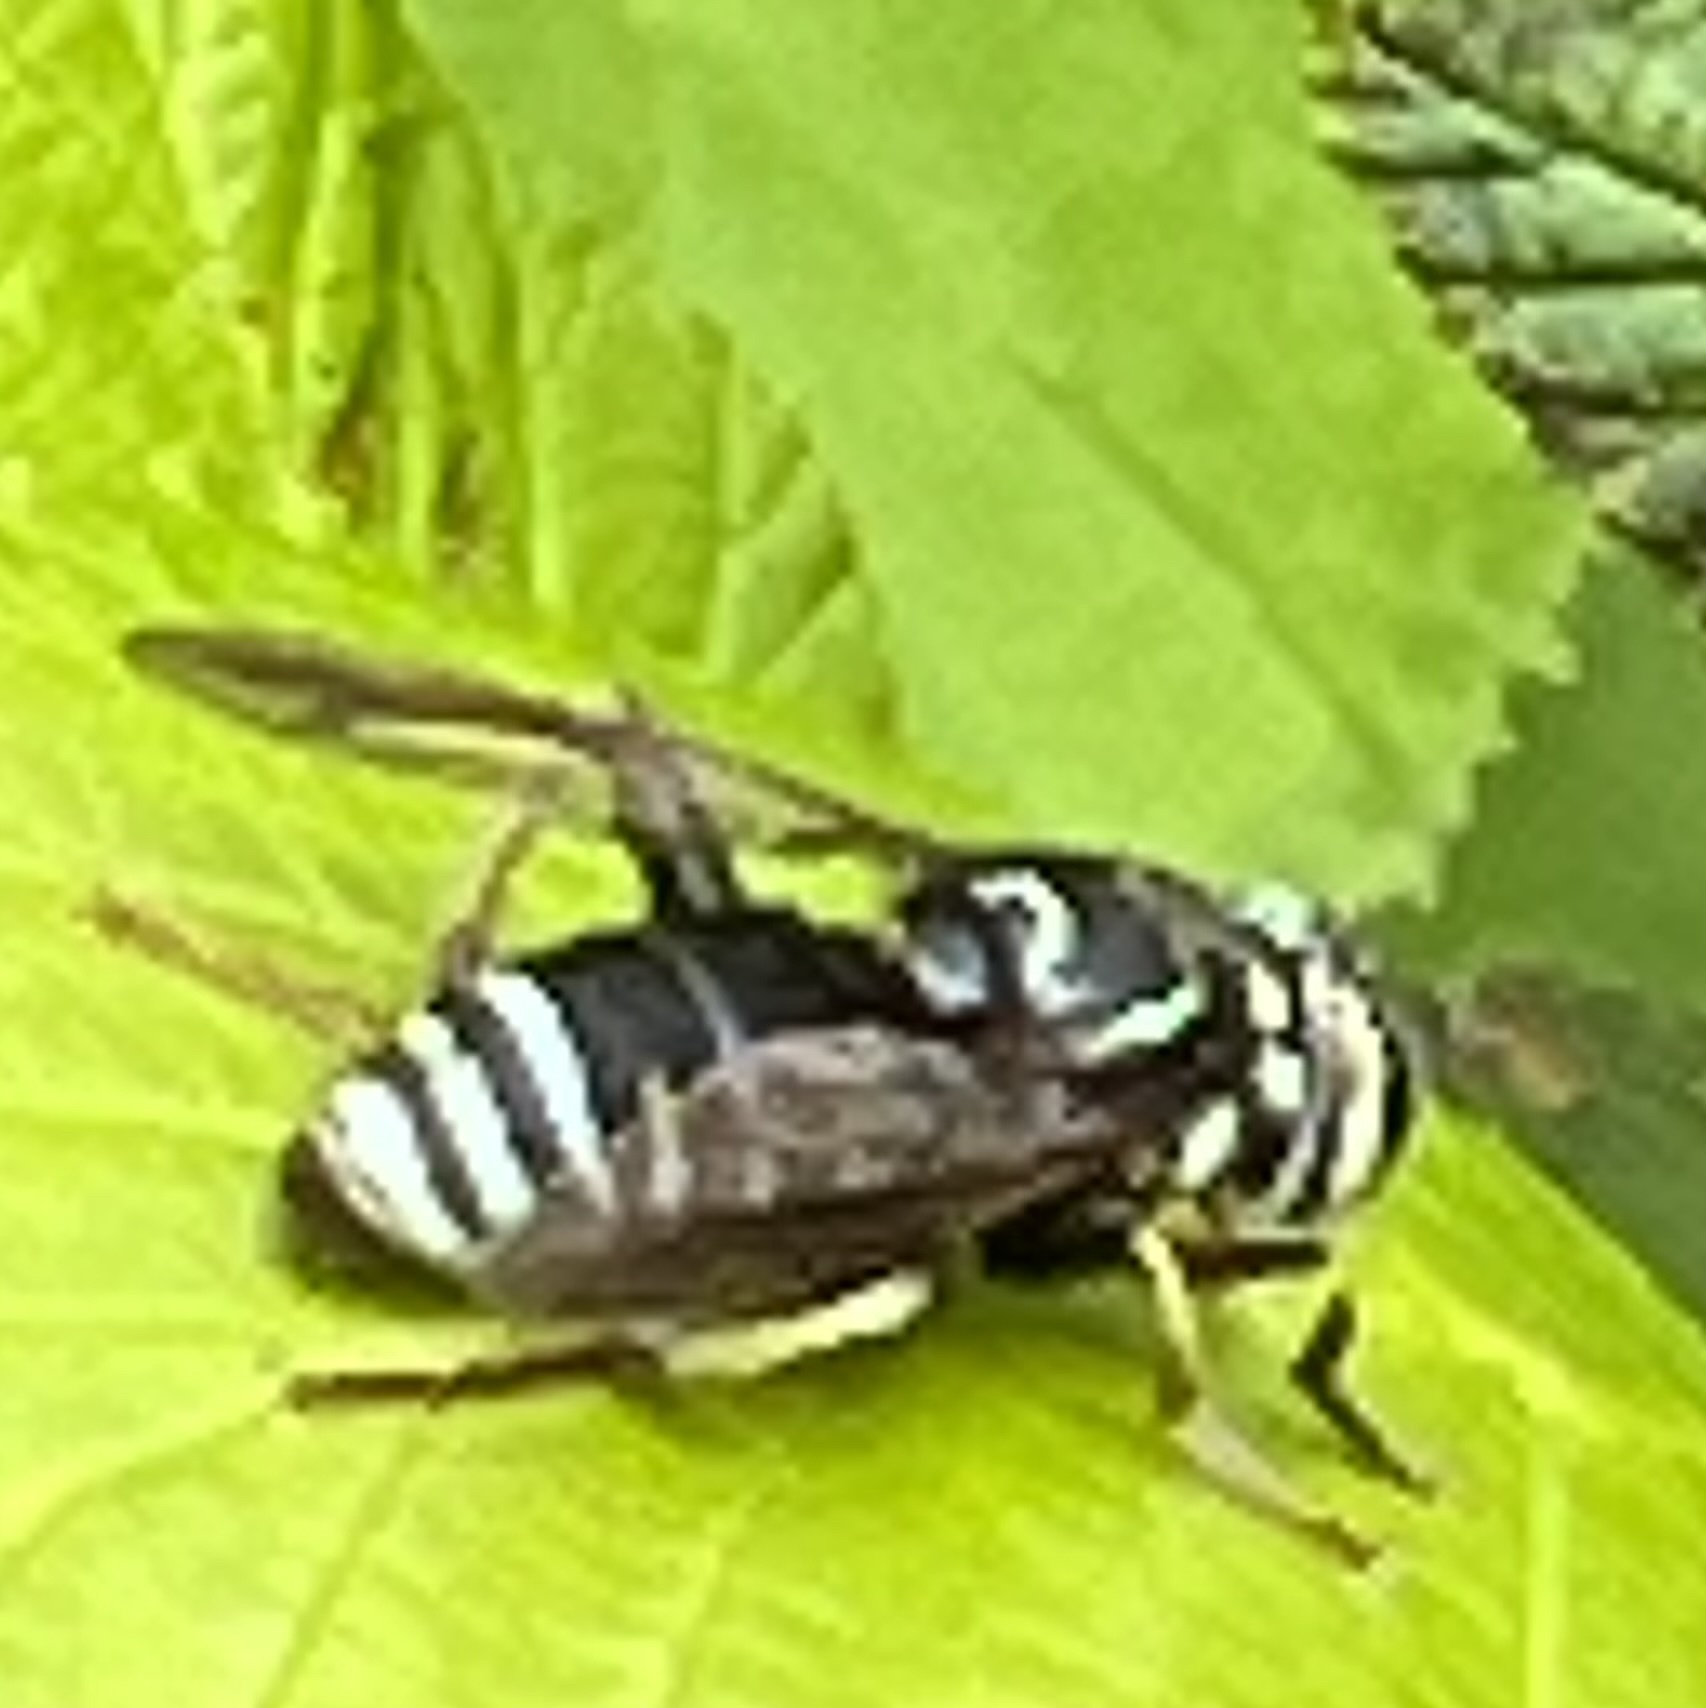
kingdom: Animalia
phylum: Arthropoda
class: Insecta
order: Diptera
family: Syrphidae
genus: Spilomyia
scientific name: Spilomyia fusca
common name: Bald-faced hornet fly
